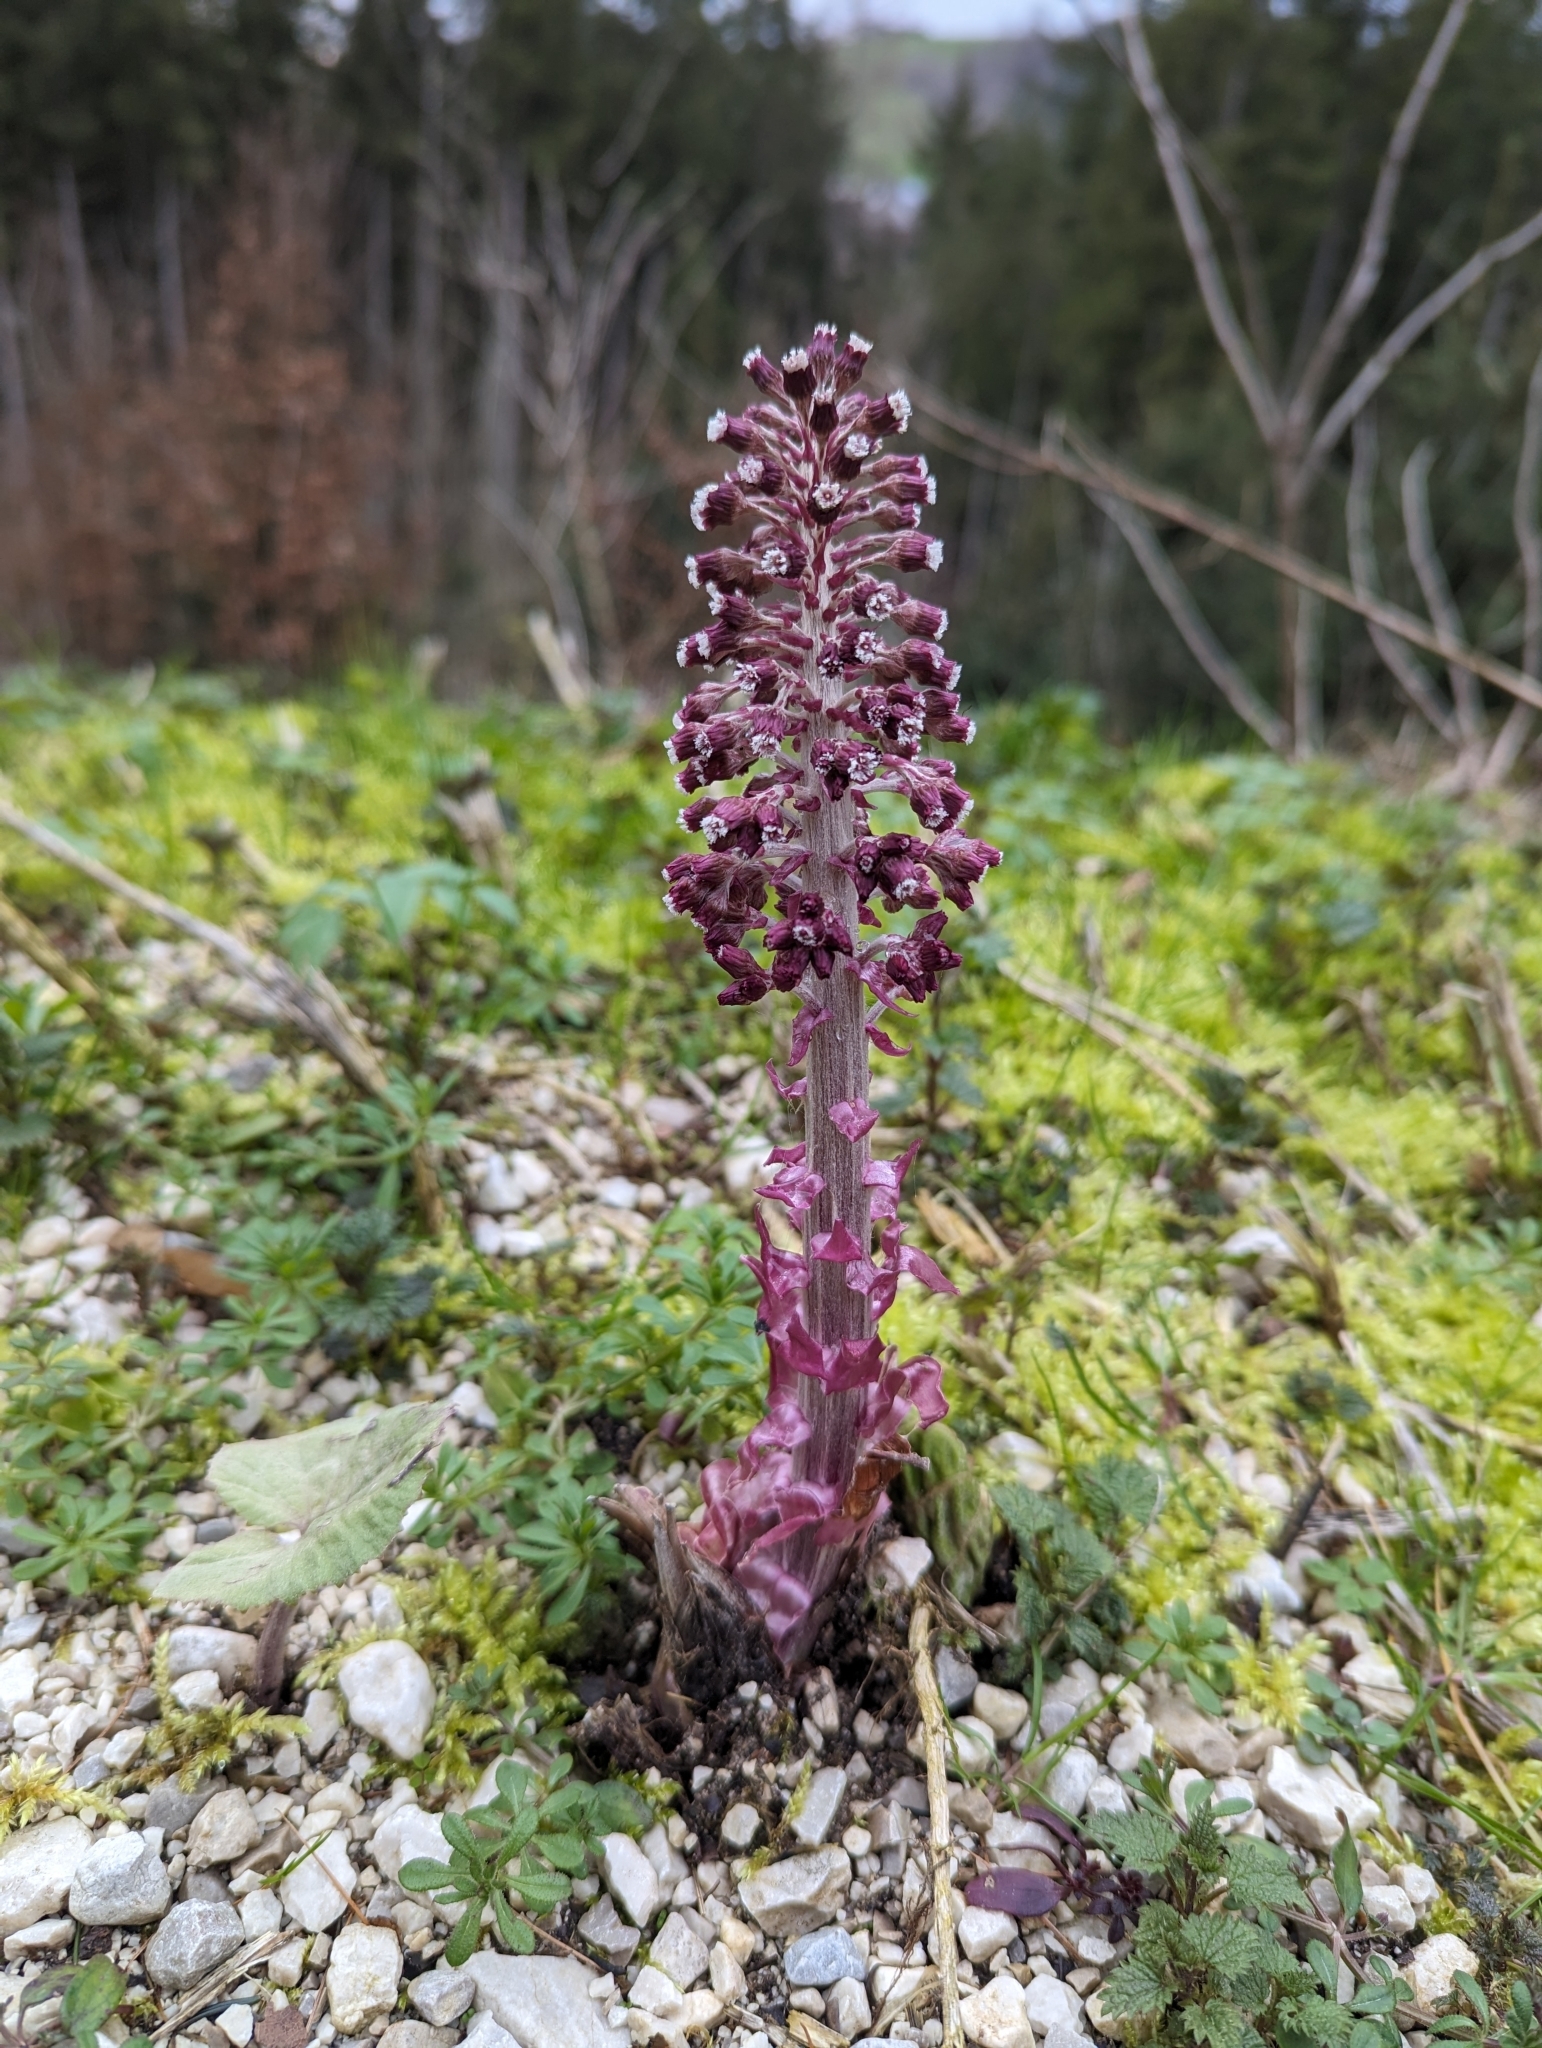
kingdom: Plantae
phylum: Tracheophyta
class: Magnoliopsida
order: Asterales
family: Asteraceae
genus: Petasites
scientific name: Petasites hybridus
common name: Butterbur
